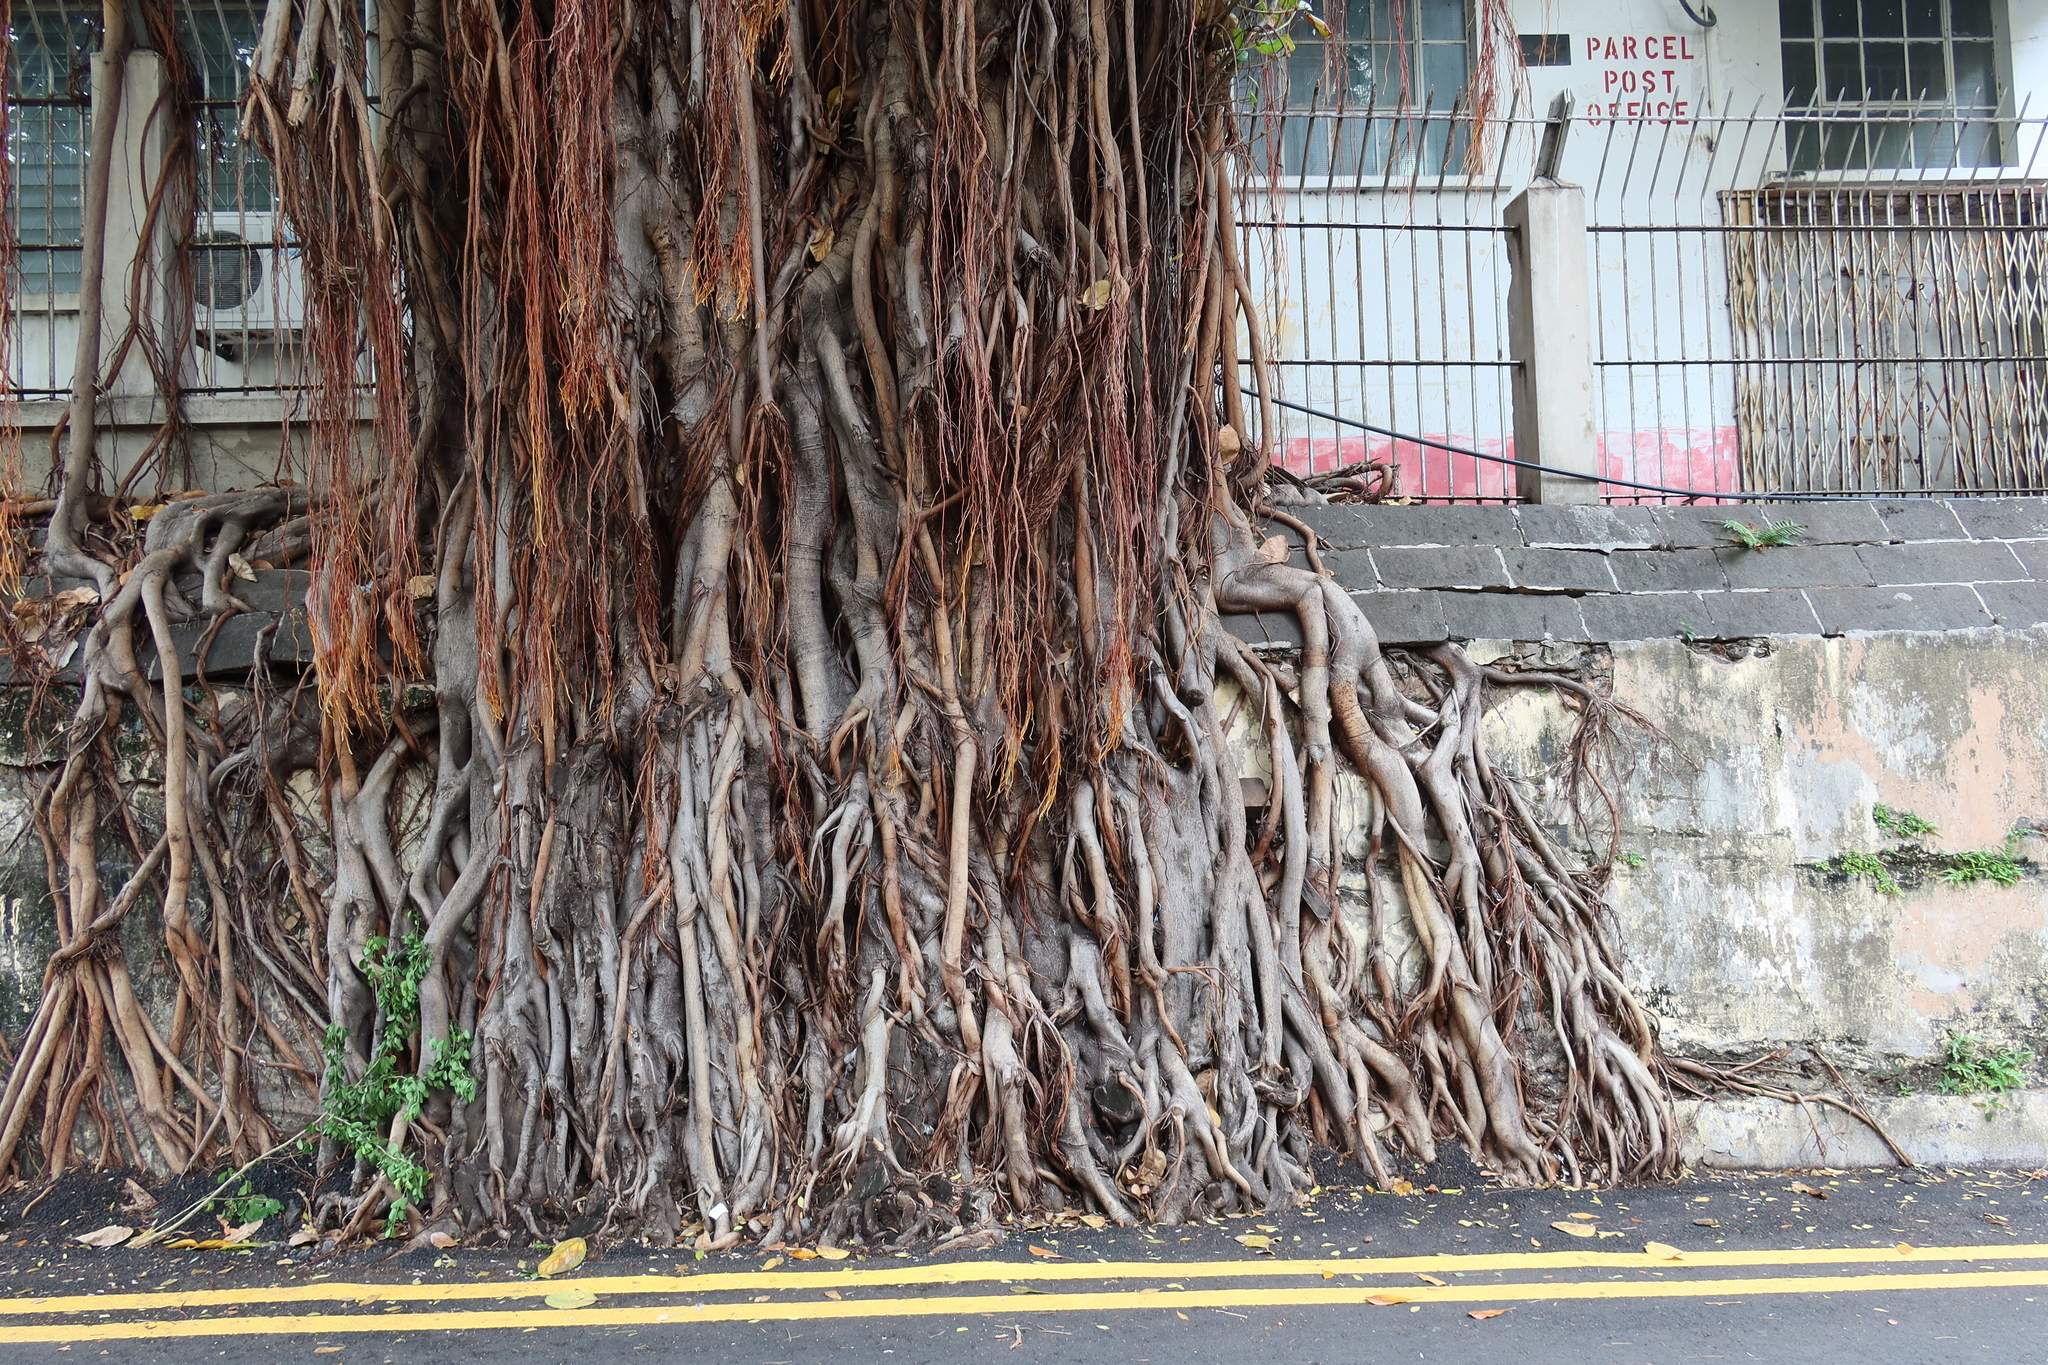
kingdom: Plantae
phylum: Tracheophyta
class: Magnoliopsida
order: Rosales
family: Moraceae
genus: Ficus
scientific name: Ficus benghalensis
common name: Indian banyan
